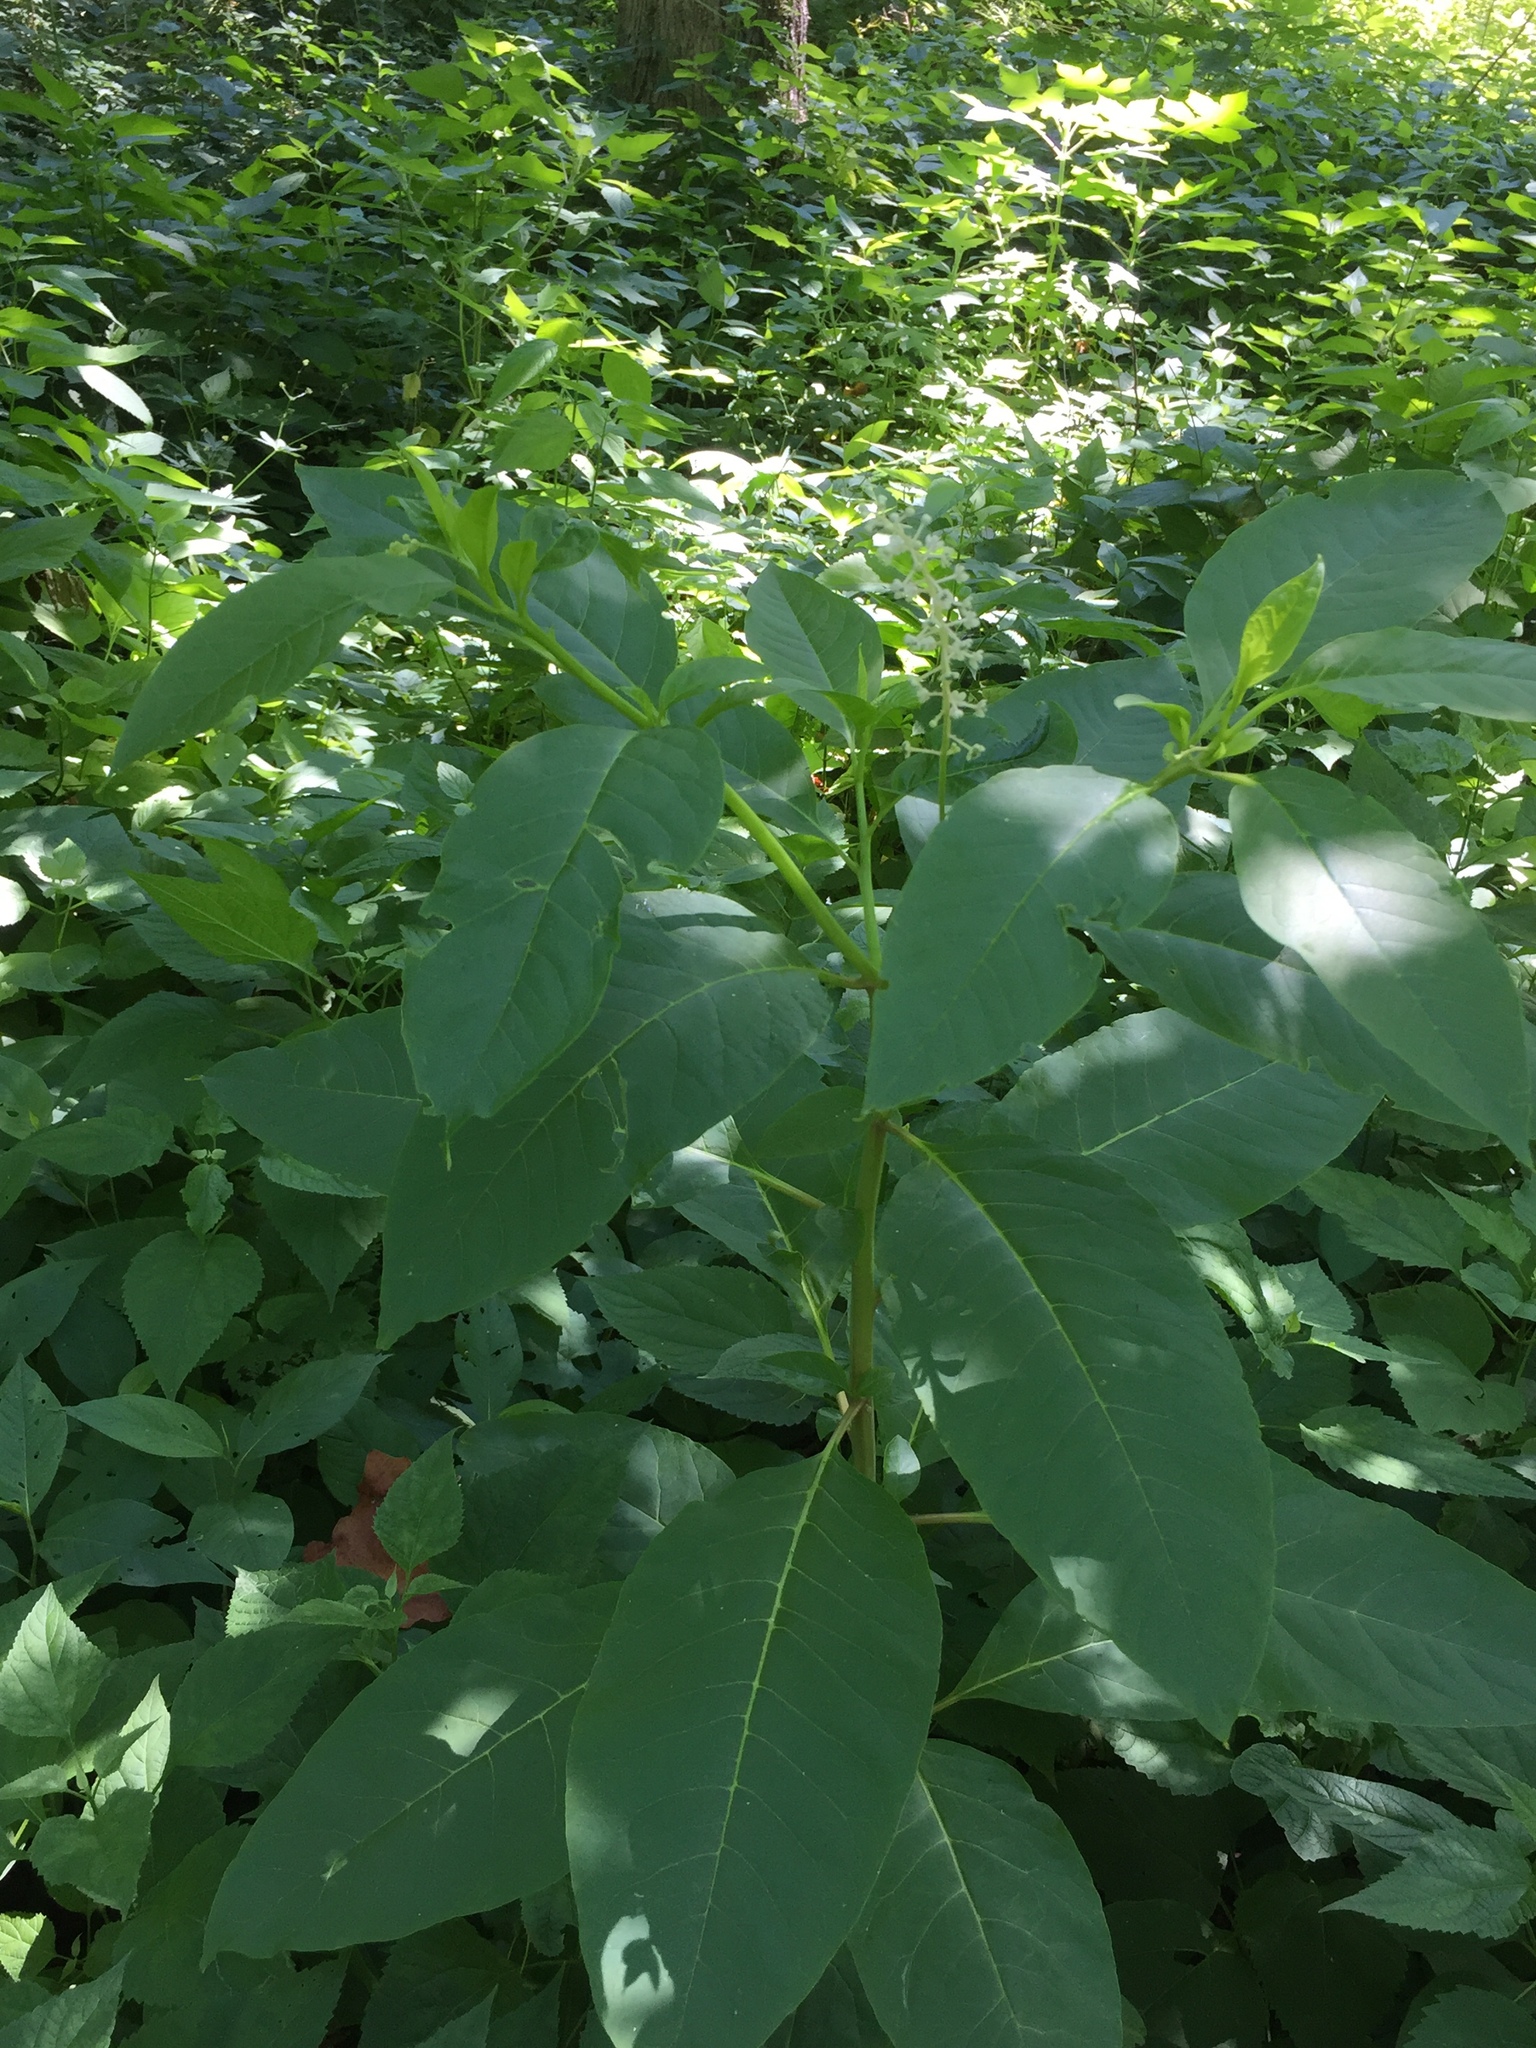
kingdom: Plantae
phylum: Tracheophyta
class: Magnoliopsida
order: Caryophyllales
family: Phytolaccaceae
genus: Phytolacca
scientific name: Phytolacca americana
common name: American pokeweed
